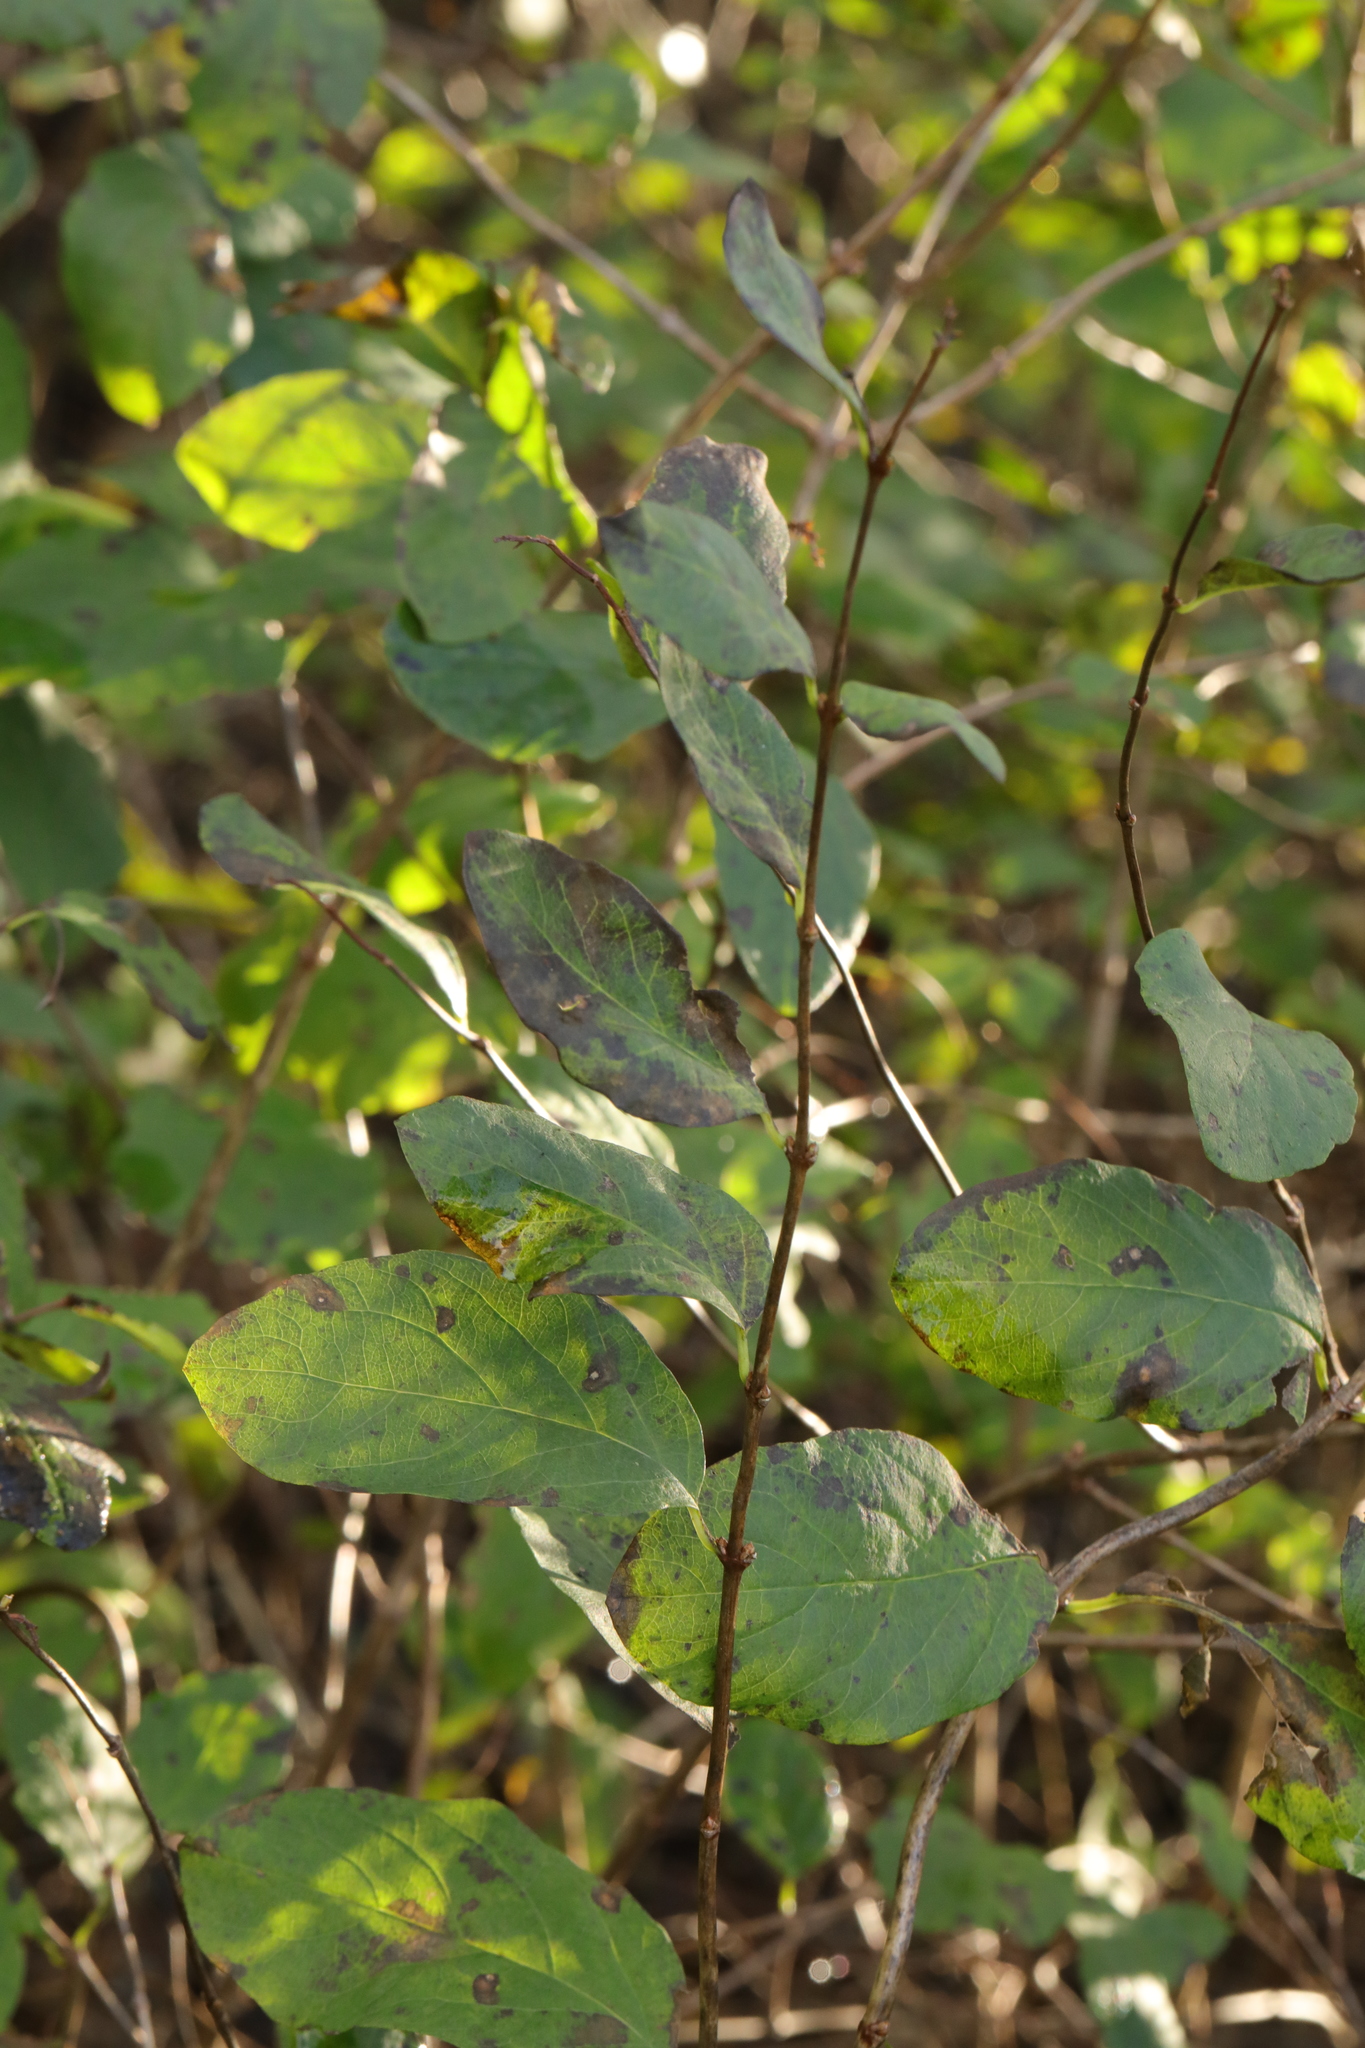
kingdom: Plantae
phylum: Tracheophyta
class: Magnoliopsida
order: Dipsacales
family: Caprifoliaceae
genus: Symphoricarpos
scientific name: Symphoricarpos albus
